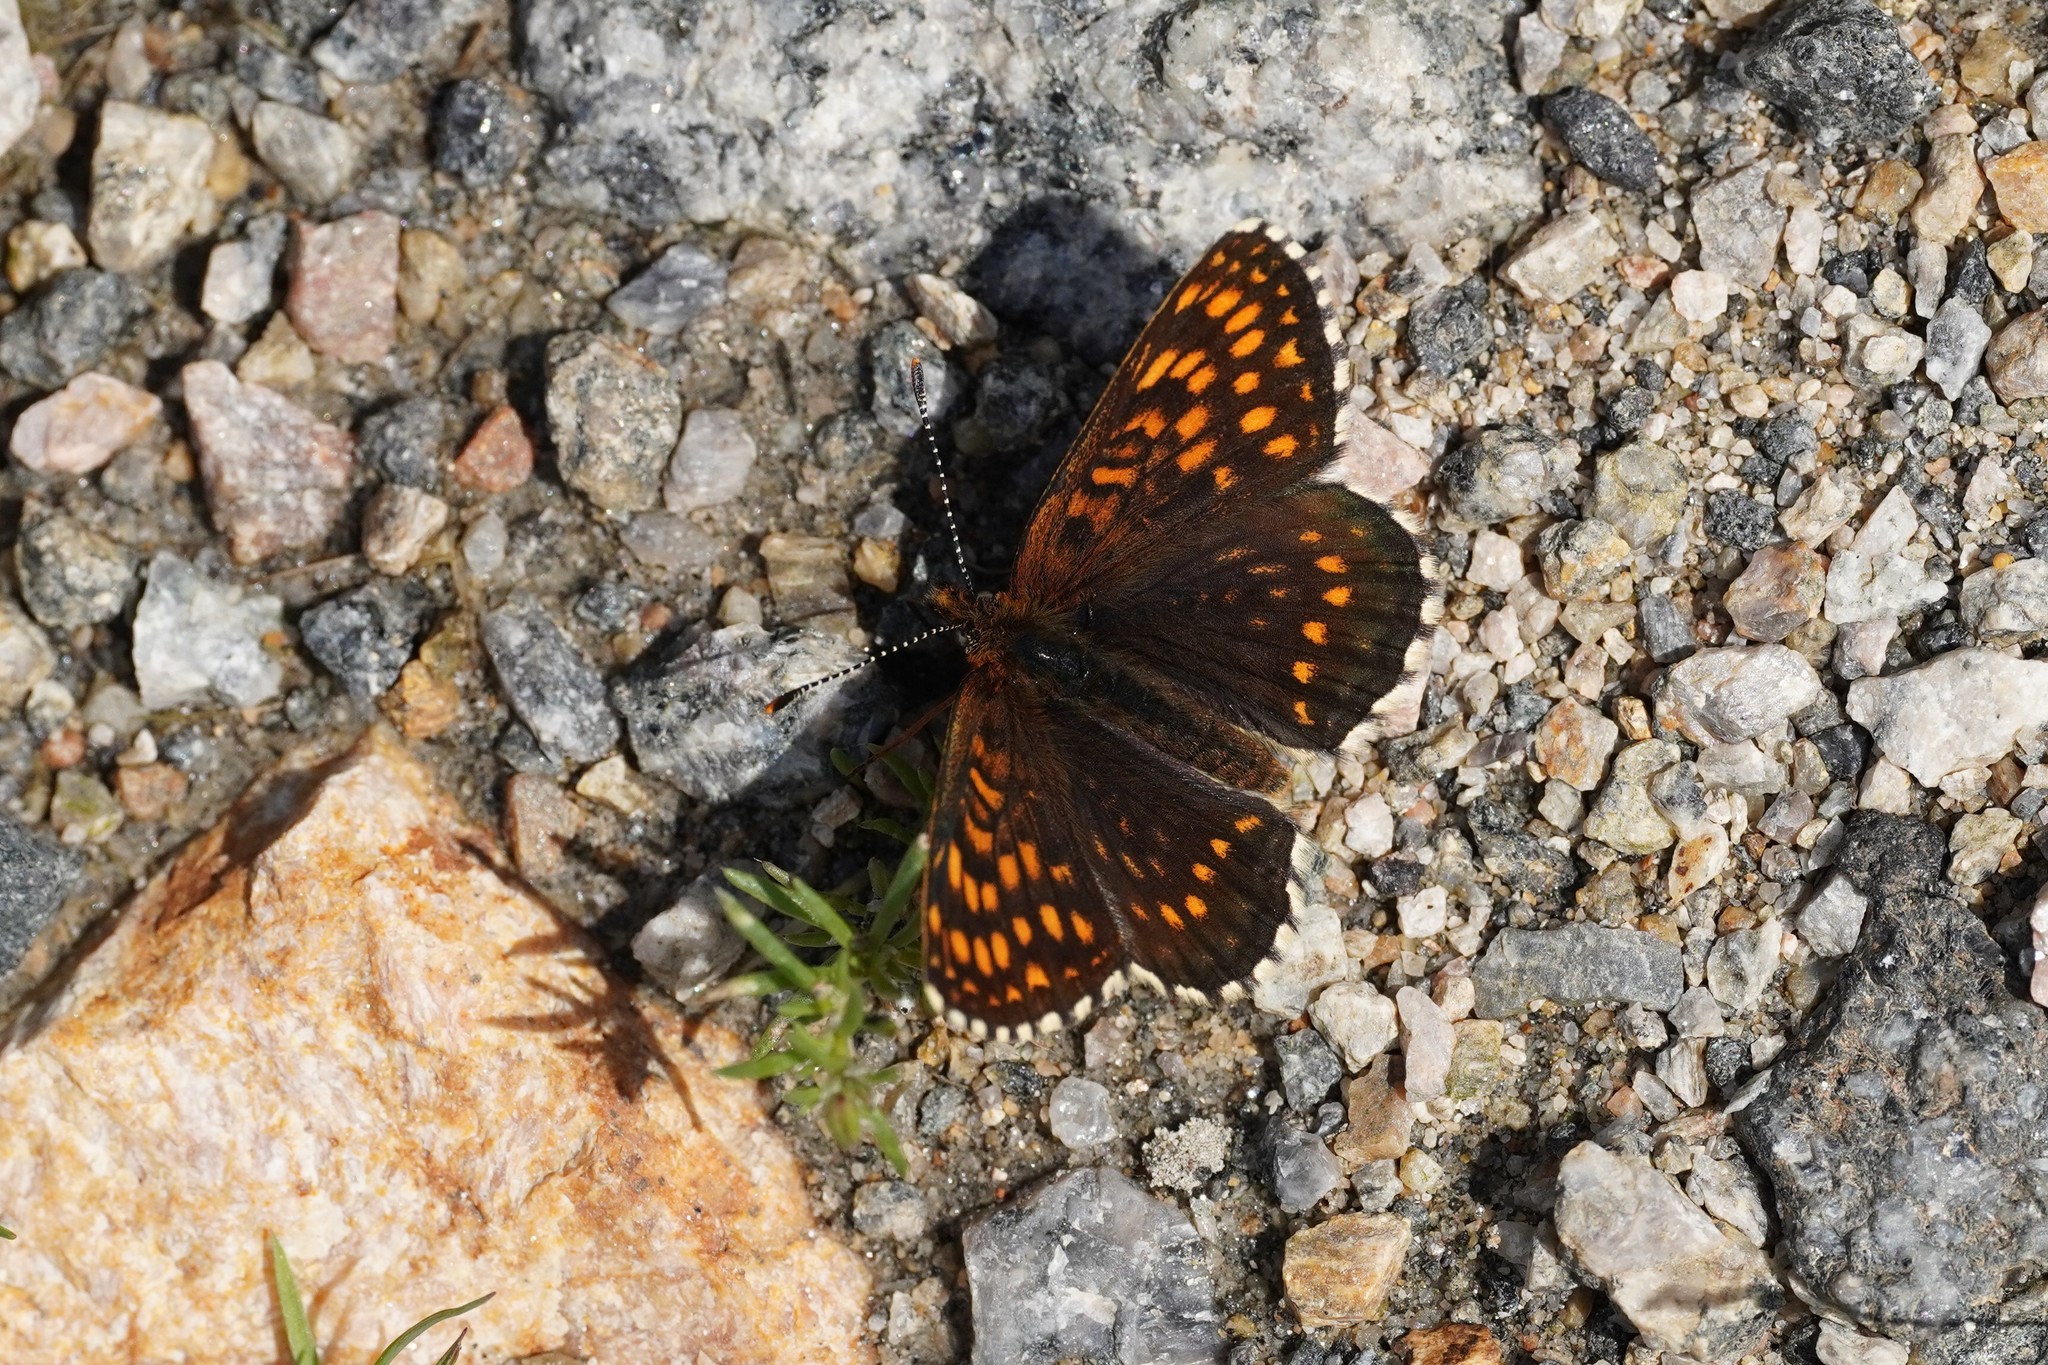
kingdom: Animalia
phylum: Arthropoda
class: Insecta
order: Lepidoptera
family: Nymphalidae
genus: Melitaea
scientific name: Melitaea diamina
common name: False heath fritillary
